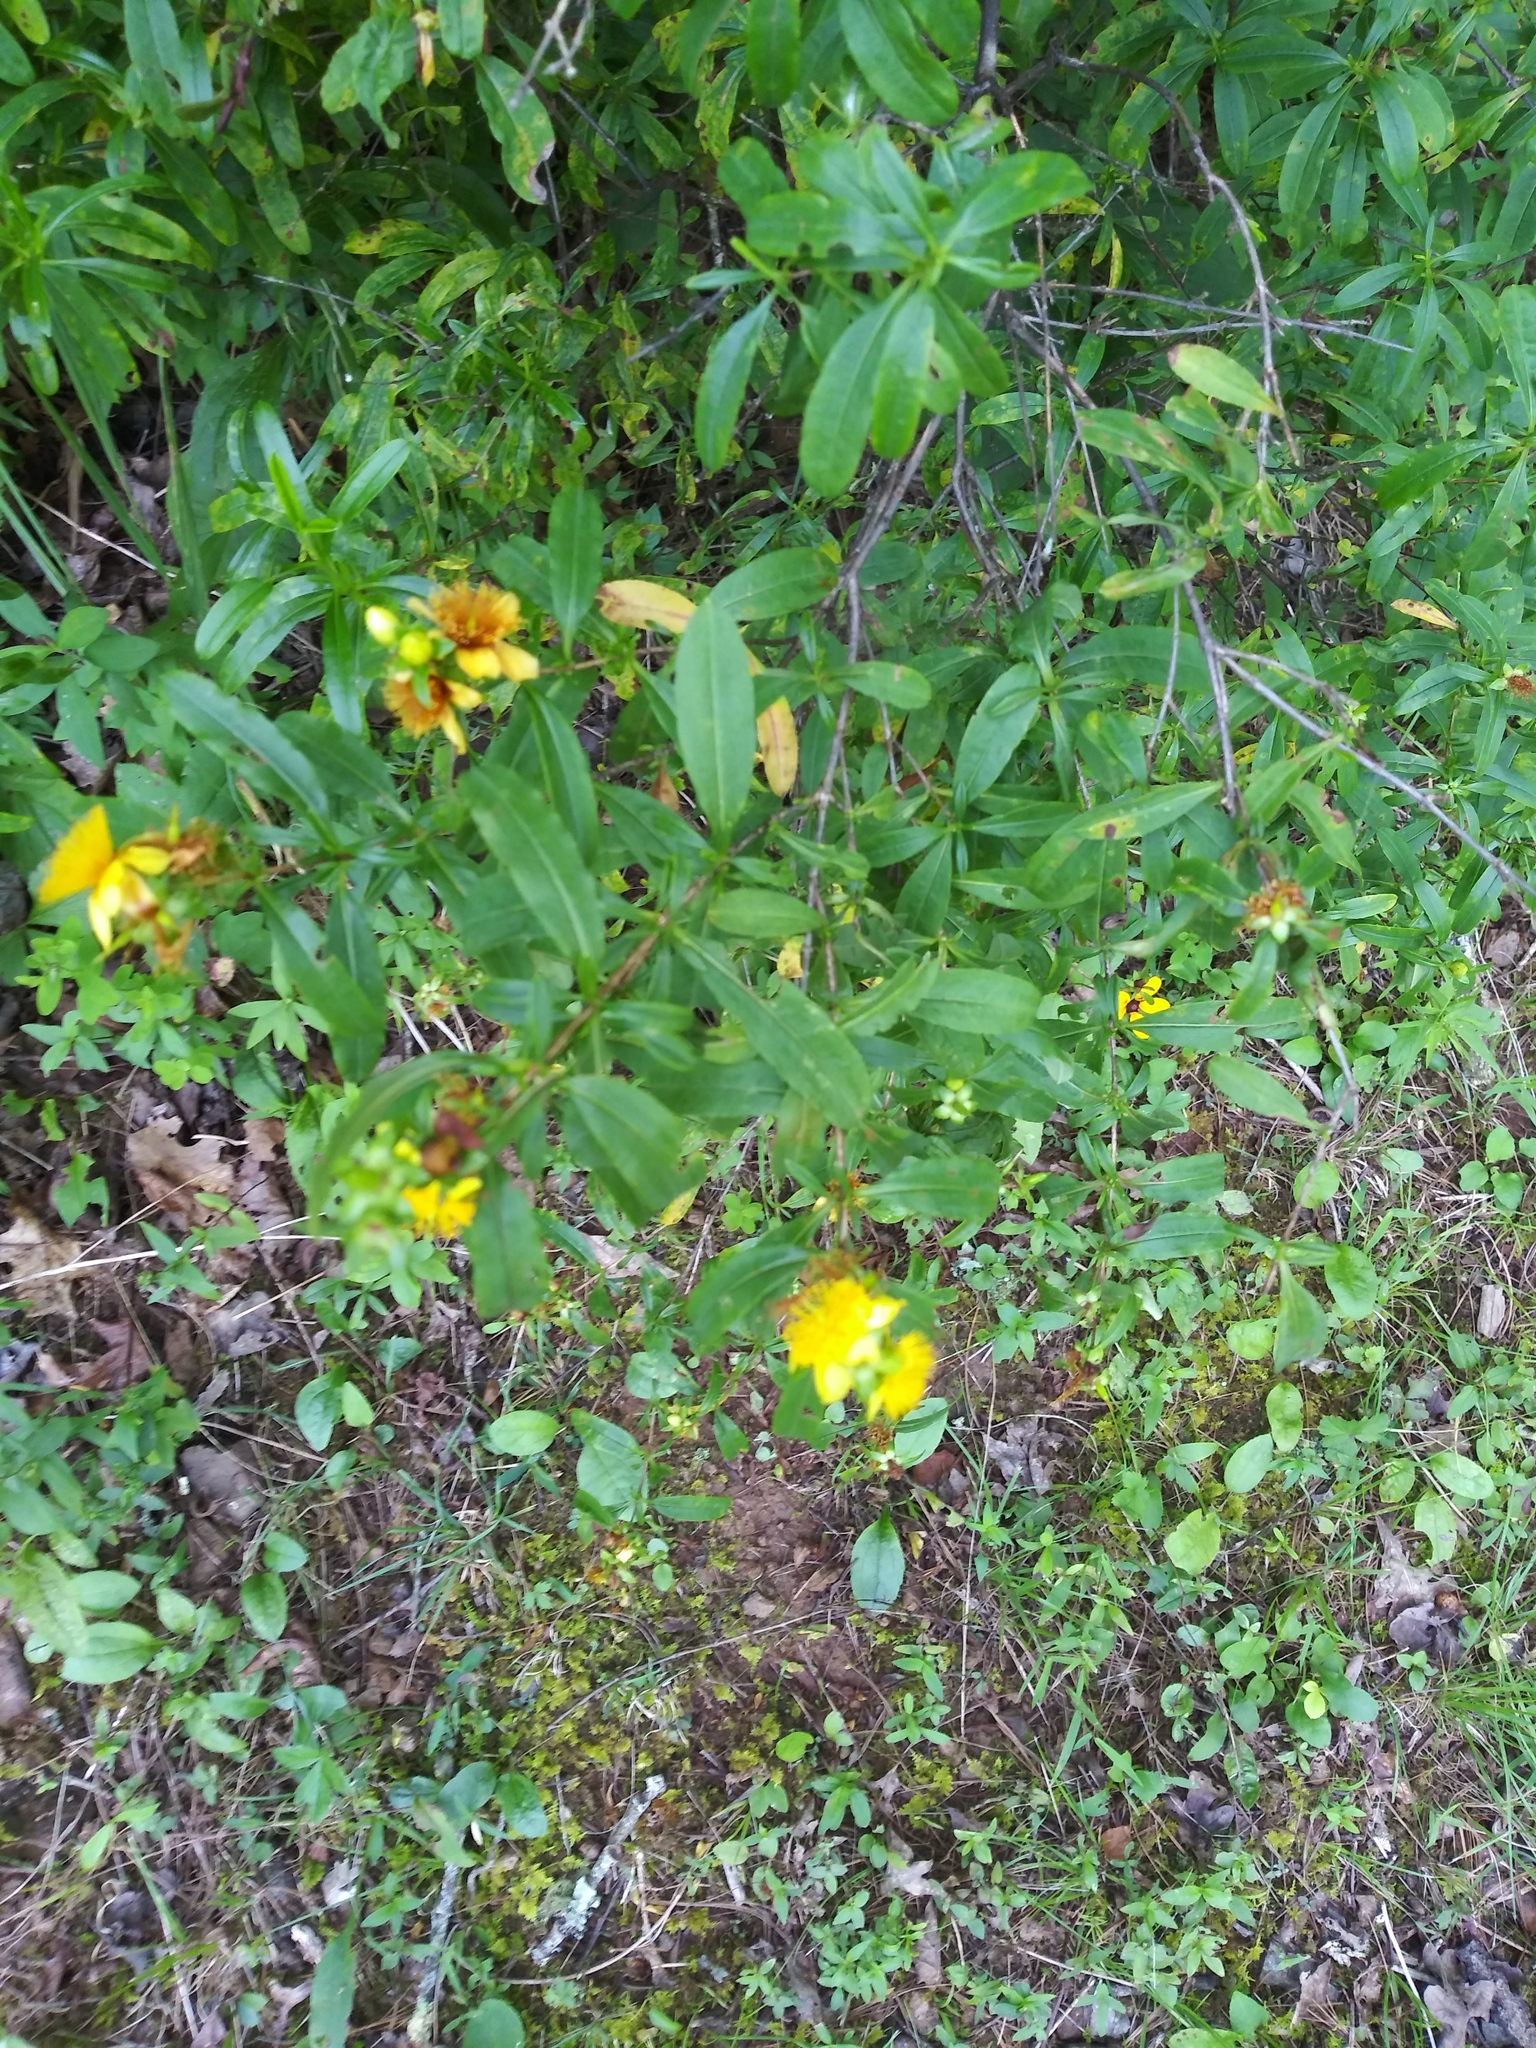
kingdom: Plantae
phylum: Tracheophyta
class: Magnoliopsida
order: Malpighiales
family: Hypericaceae
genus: Hypericum
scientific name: Hypericum prolificum
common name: Shrubby st. john's-wort
